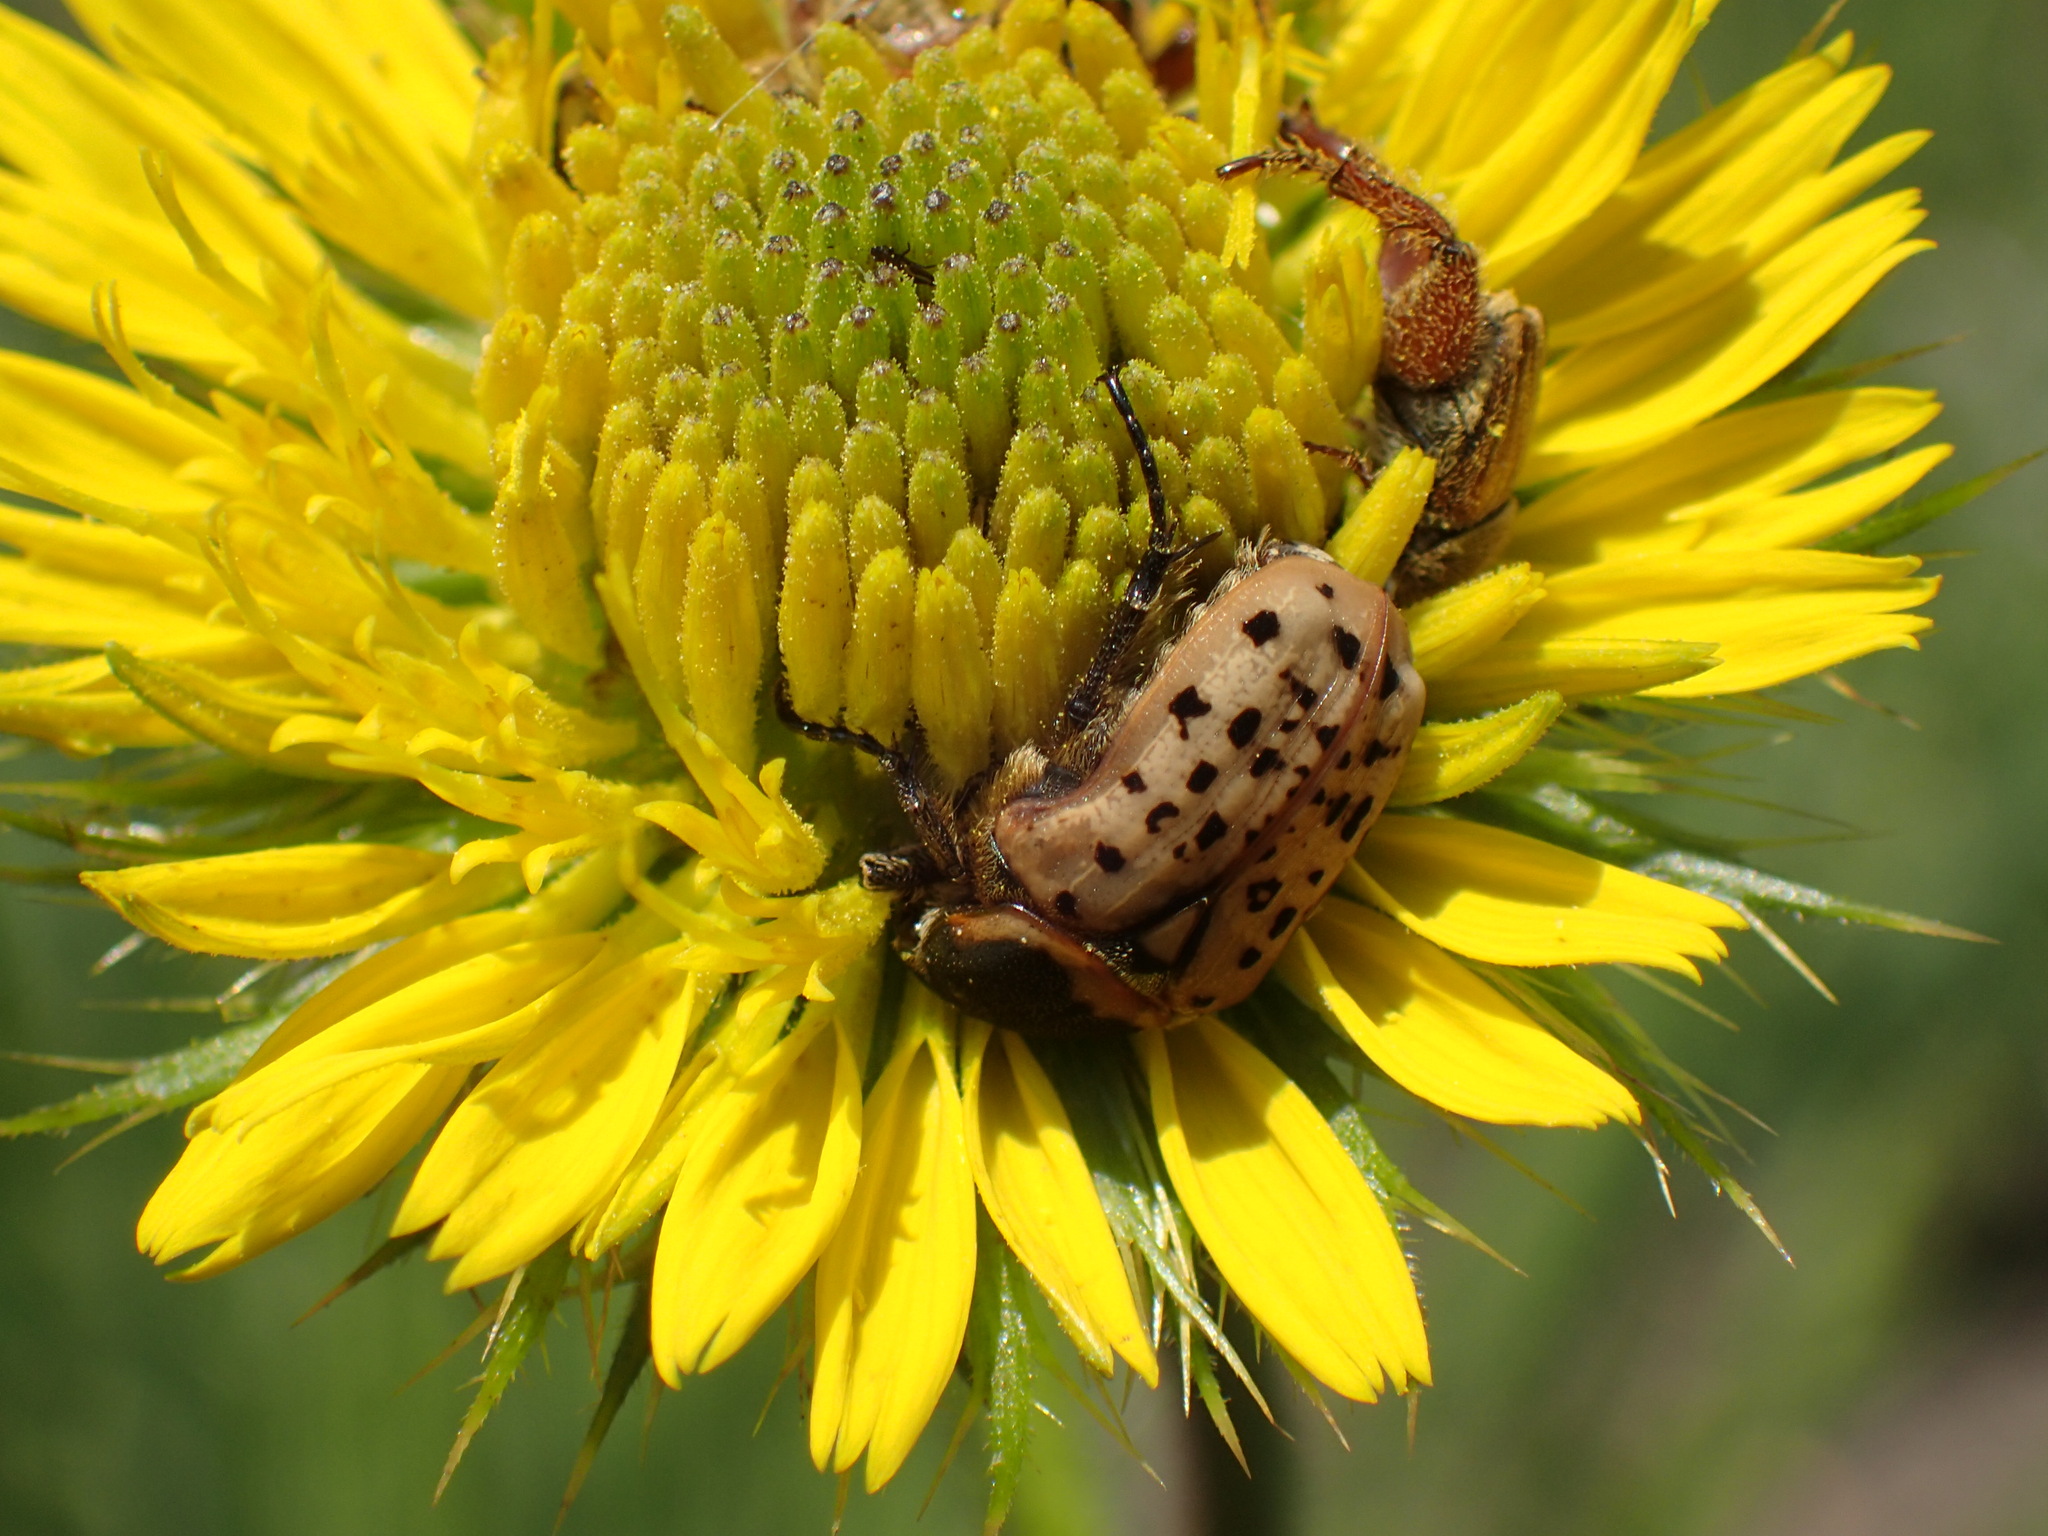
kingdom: Animalia
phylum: Arthropoda
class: Insecta
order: Coleoptera
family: Scarabaeidae
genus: Atrichelaphinis
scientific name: Atrichelaphinis tigrina
